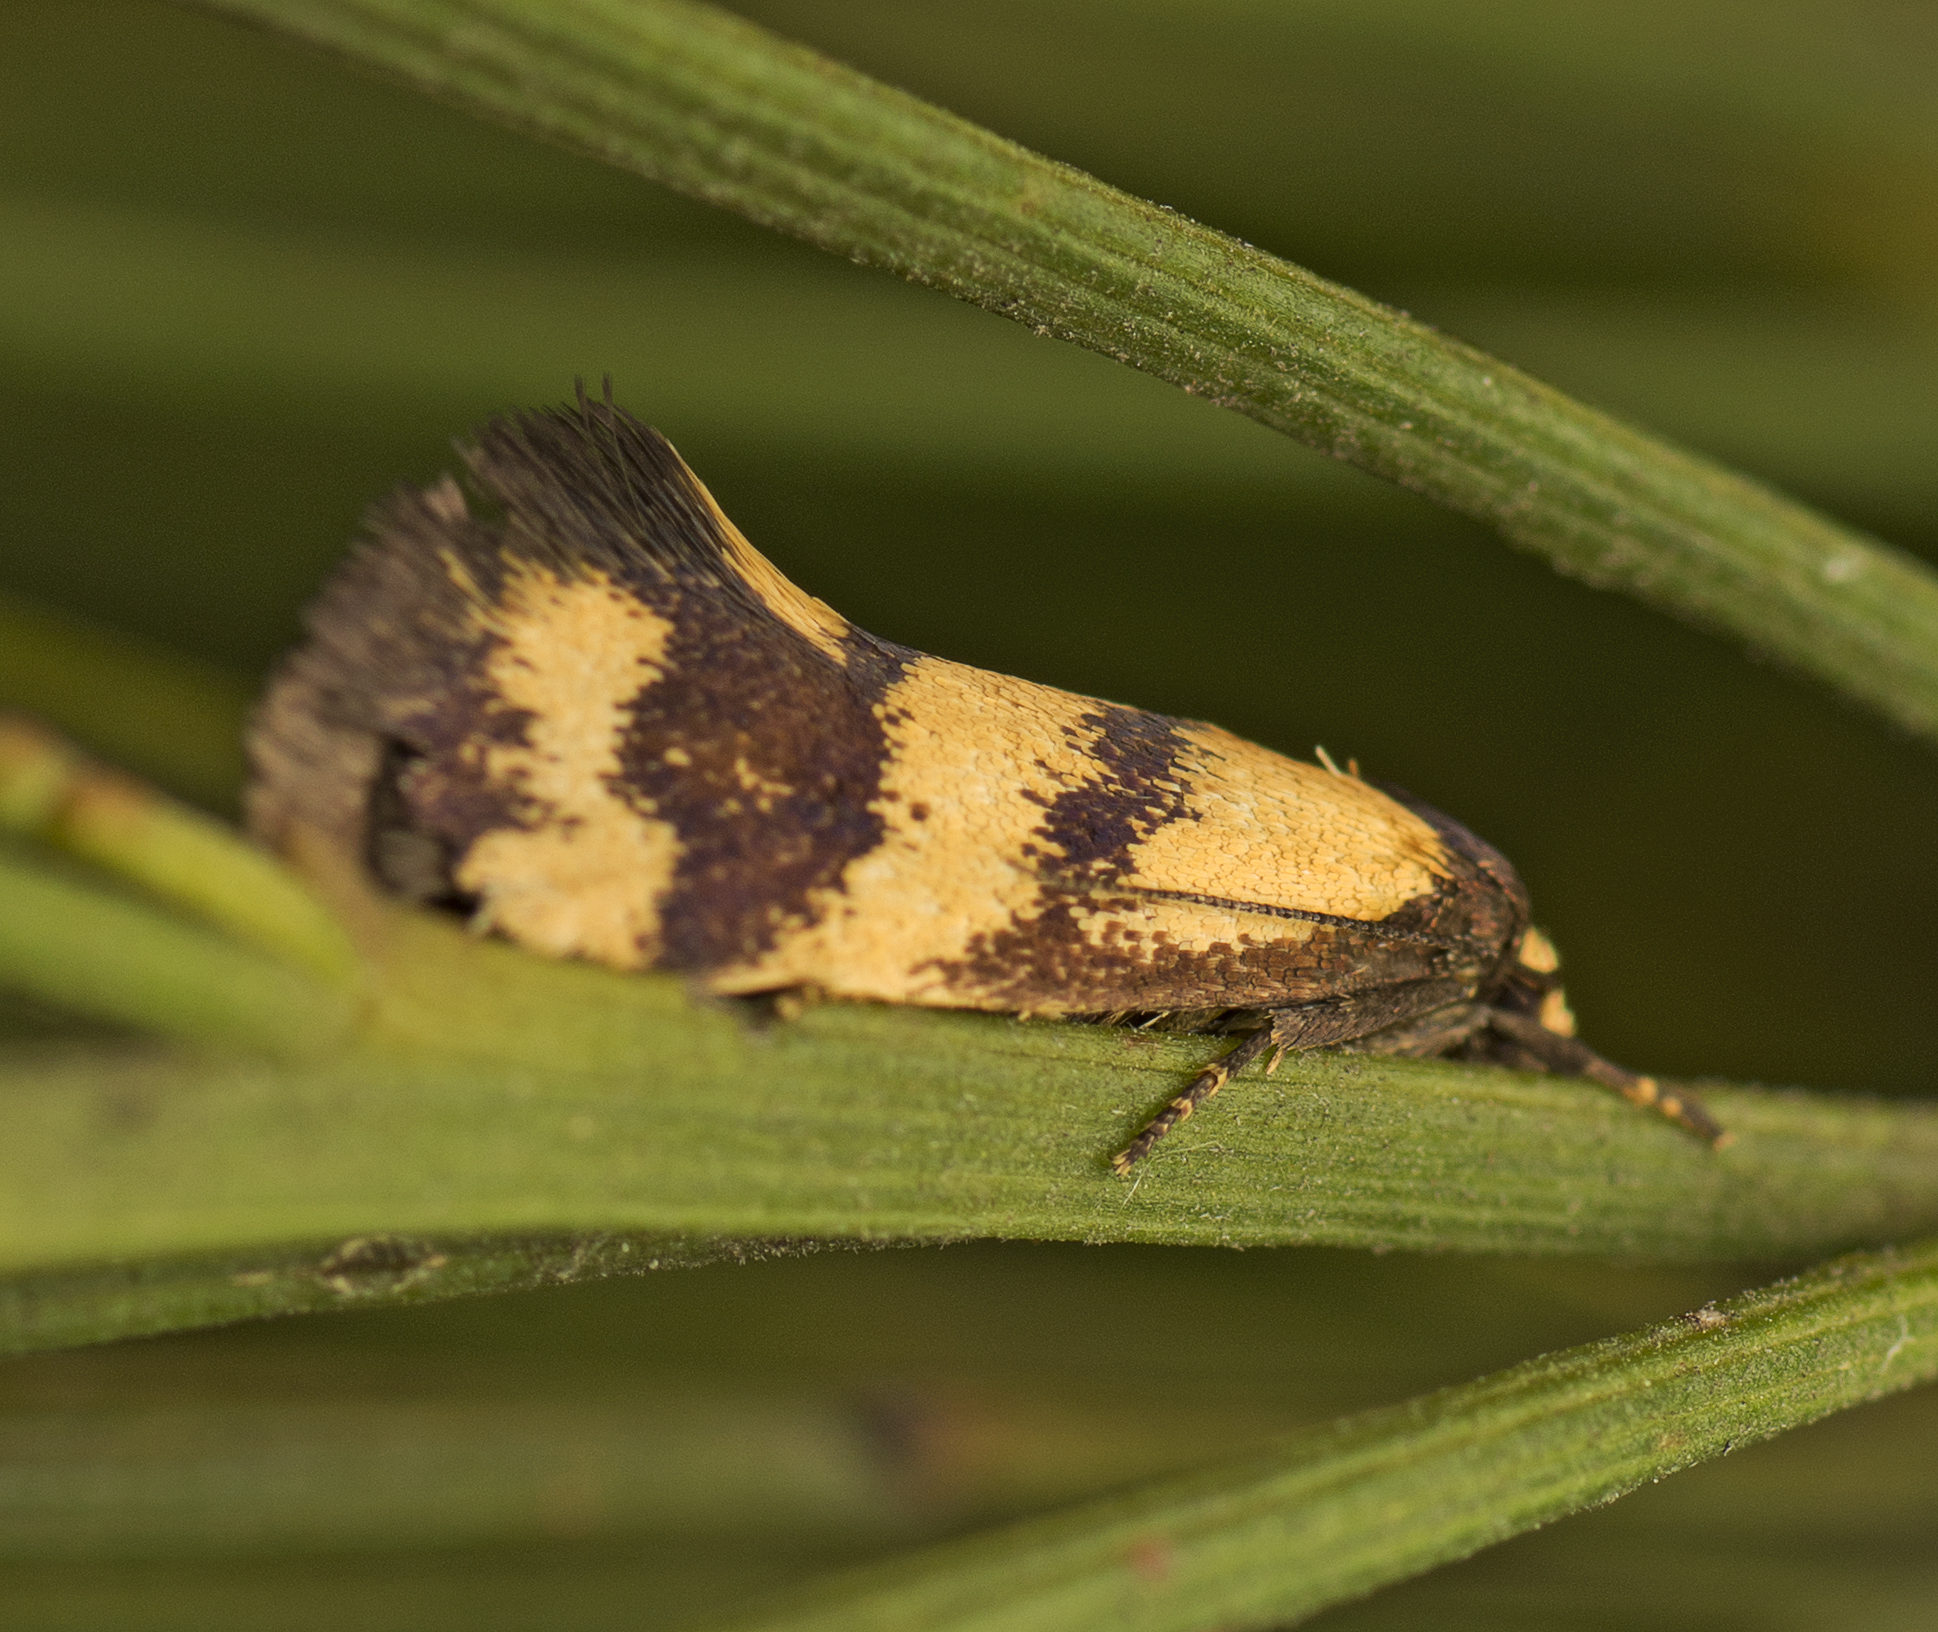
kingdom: Animalia
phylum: Arthropoda
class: Insecta
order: Lepidoptera
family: Oecophoridae
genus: Olbonoma
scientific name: Olbonoma triptycha
